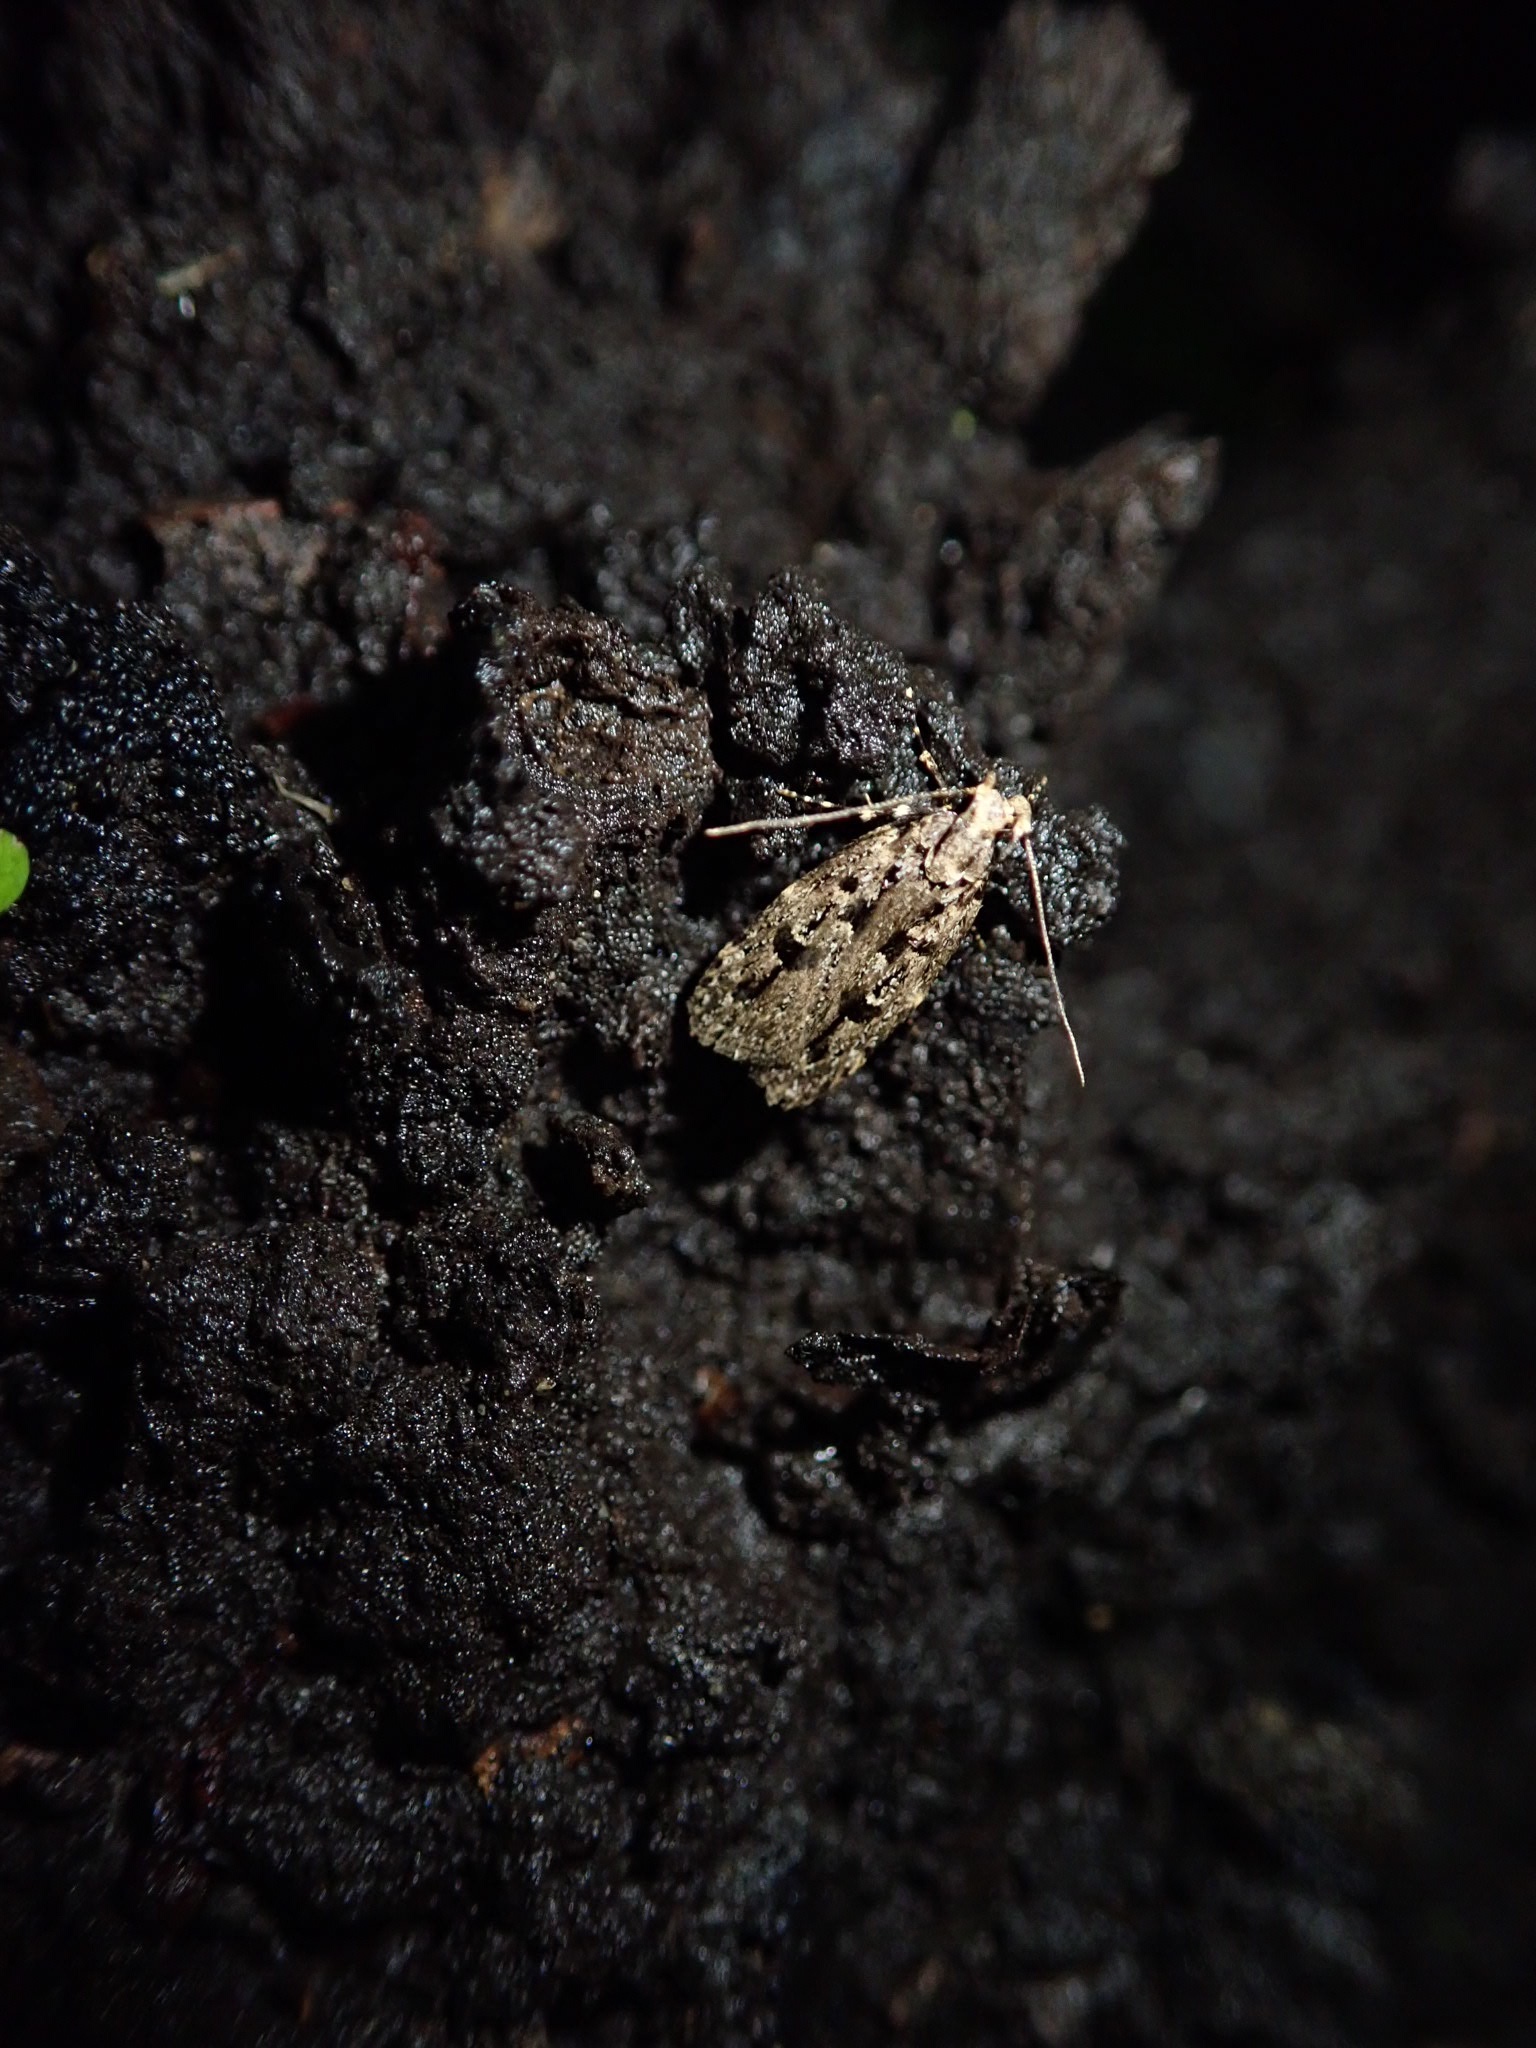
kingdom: Animalia
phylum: Arthropoda
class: Insecta
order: Lepidoptera
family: Oecophoridae
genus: Gymnobathra
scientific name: Gymnobathra dinocosma
